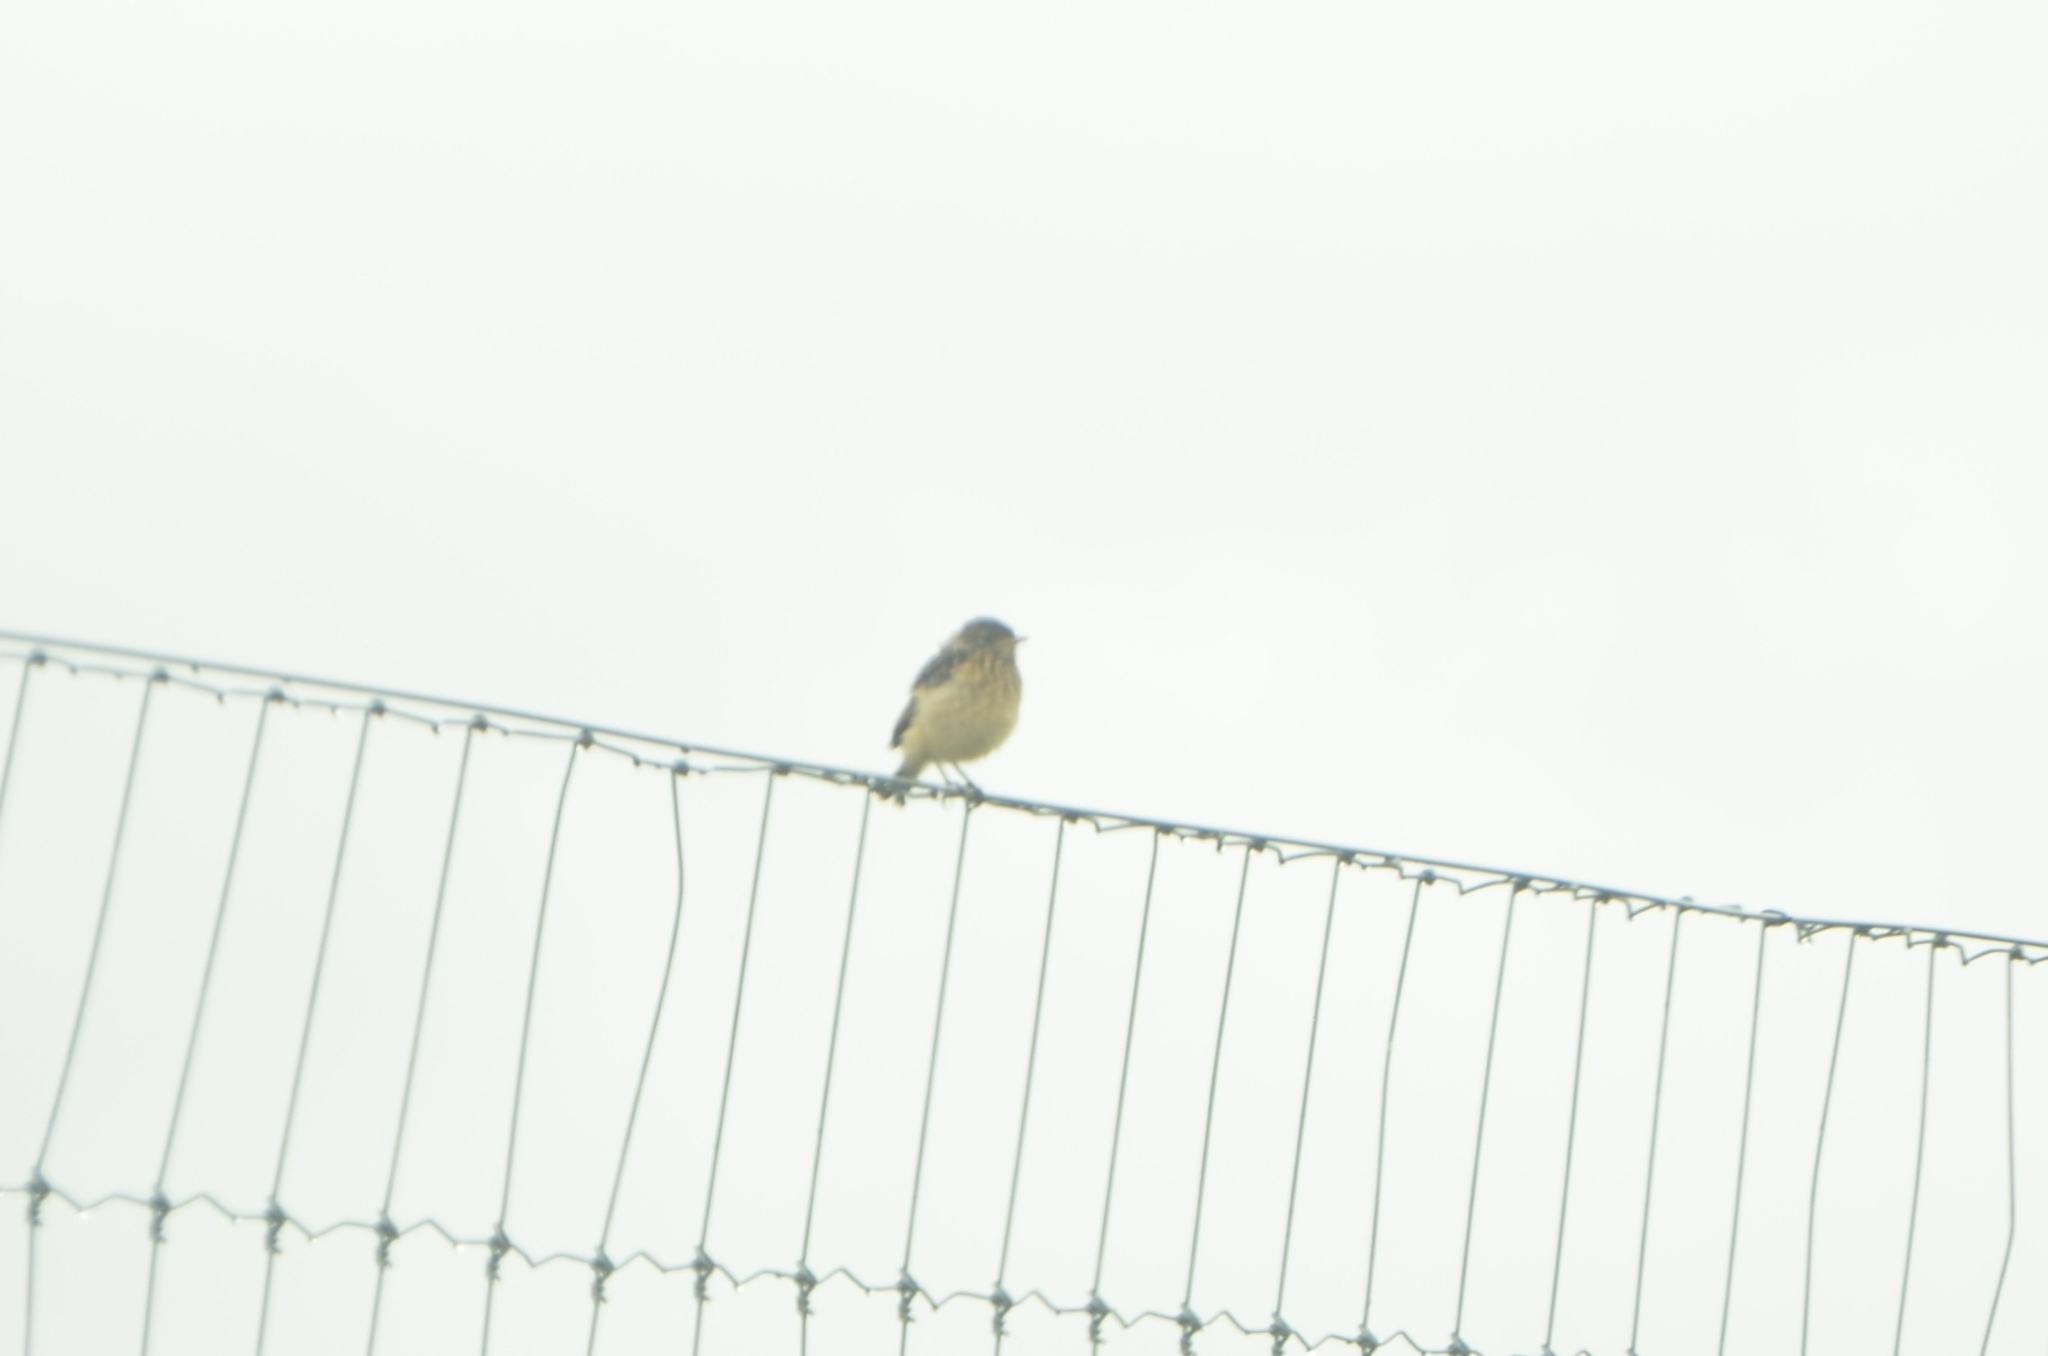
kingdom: Animalia
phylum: Chordata
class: Aves
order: Passeriformes
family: Muscicapidae
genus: Saxicola
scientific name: Saxicola torquatus
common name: African stonechat
